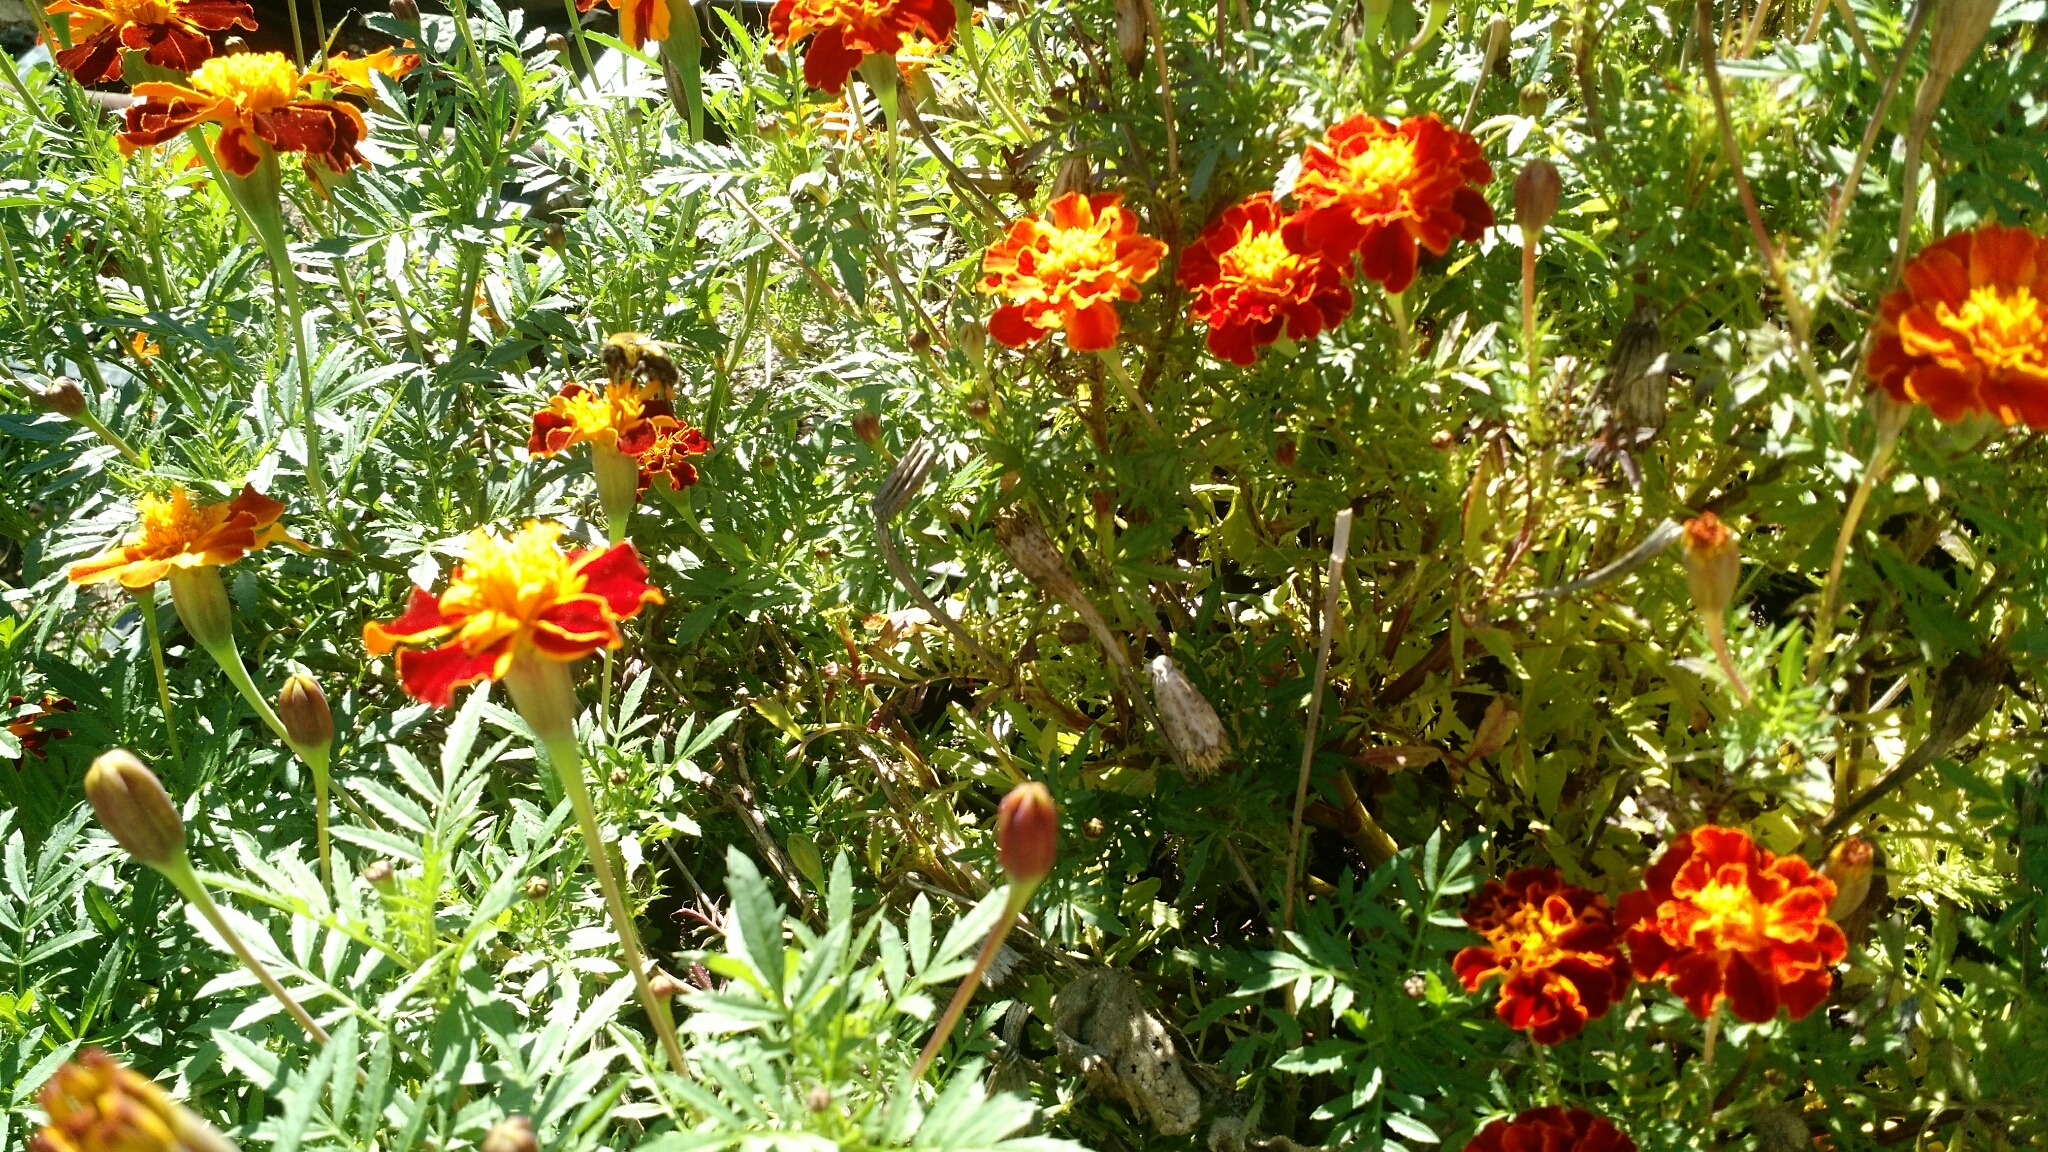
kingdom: Animalia
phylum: Arthropoda
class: Insecta
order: Hymenoptera
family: Apidae
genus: Bombus
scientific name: Bombus impatiens
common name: Common eastern bumble bee
